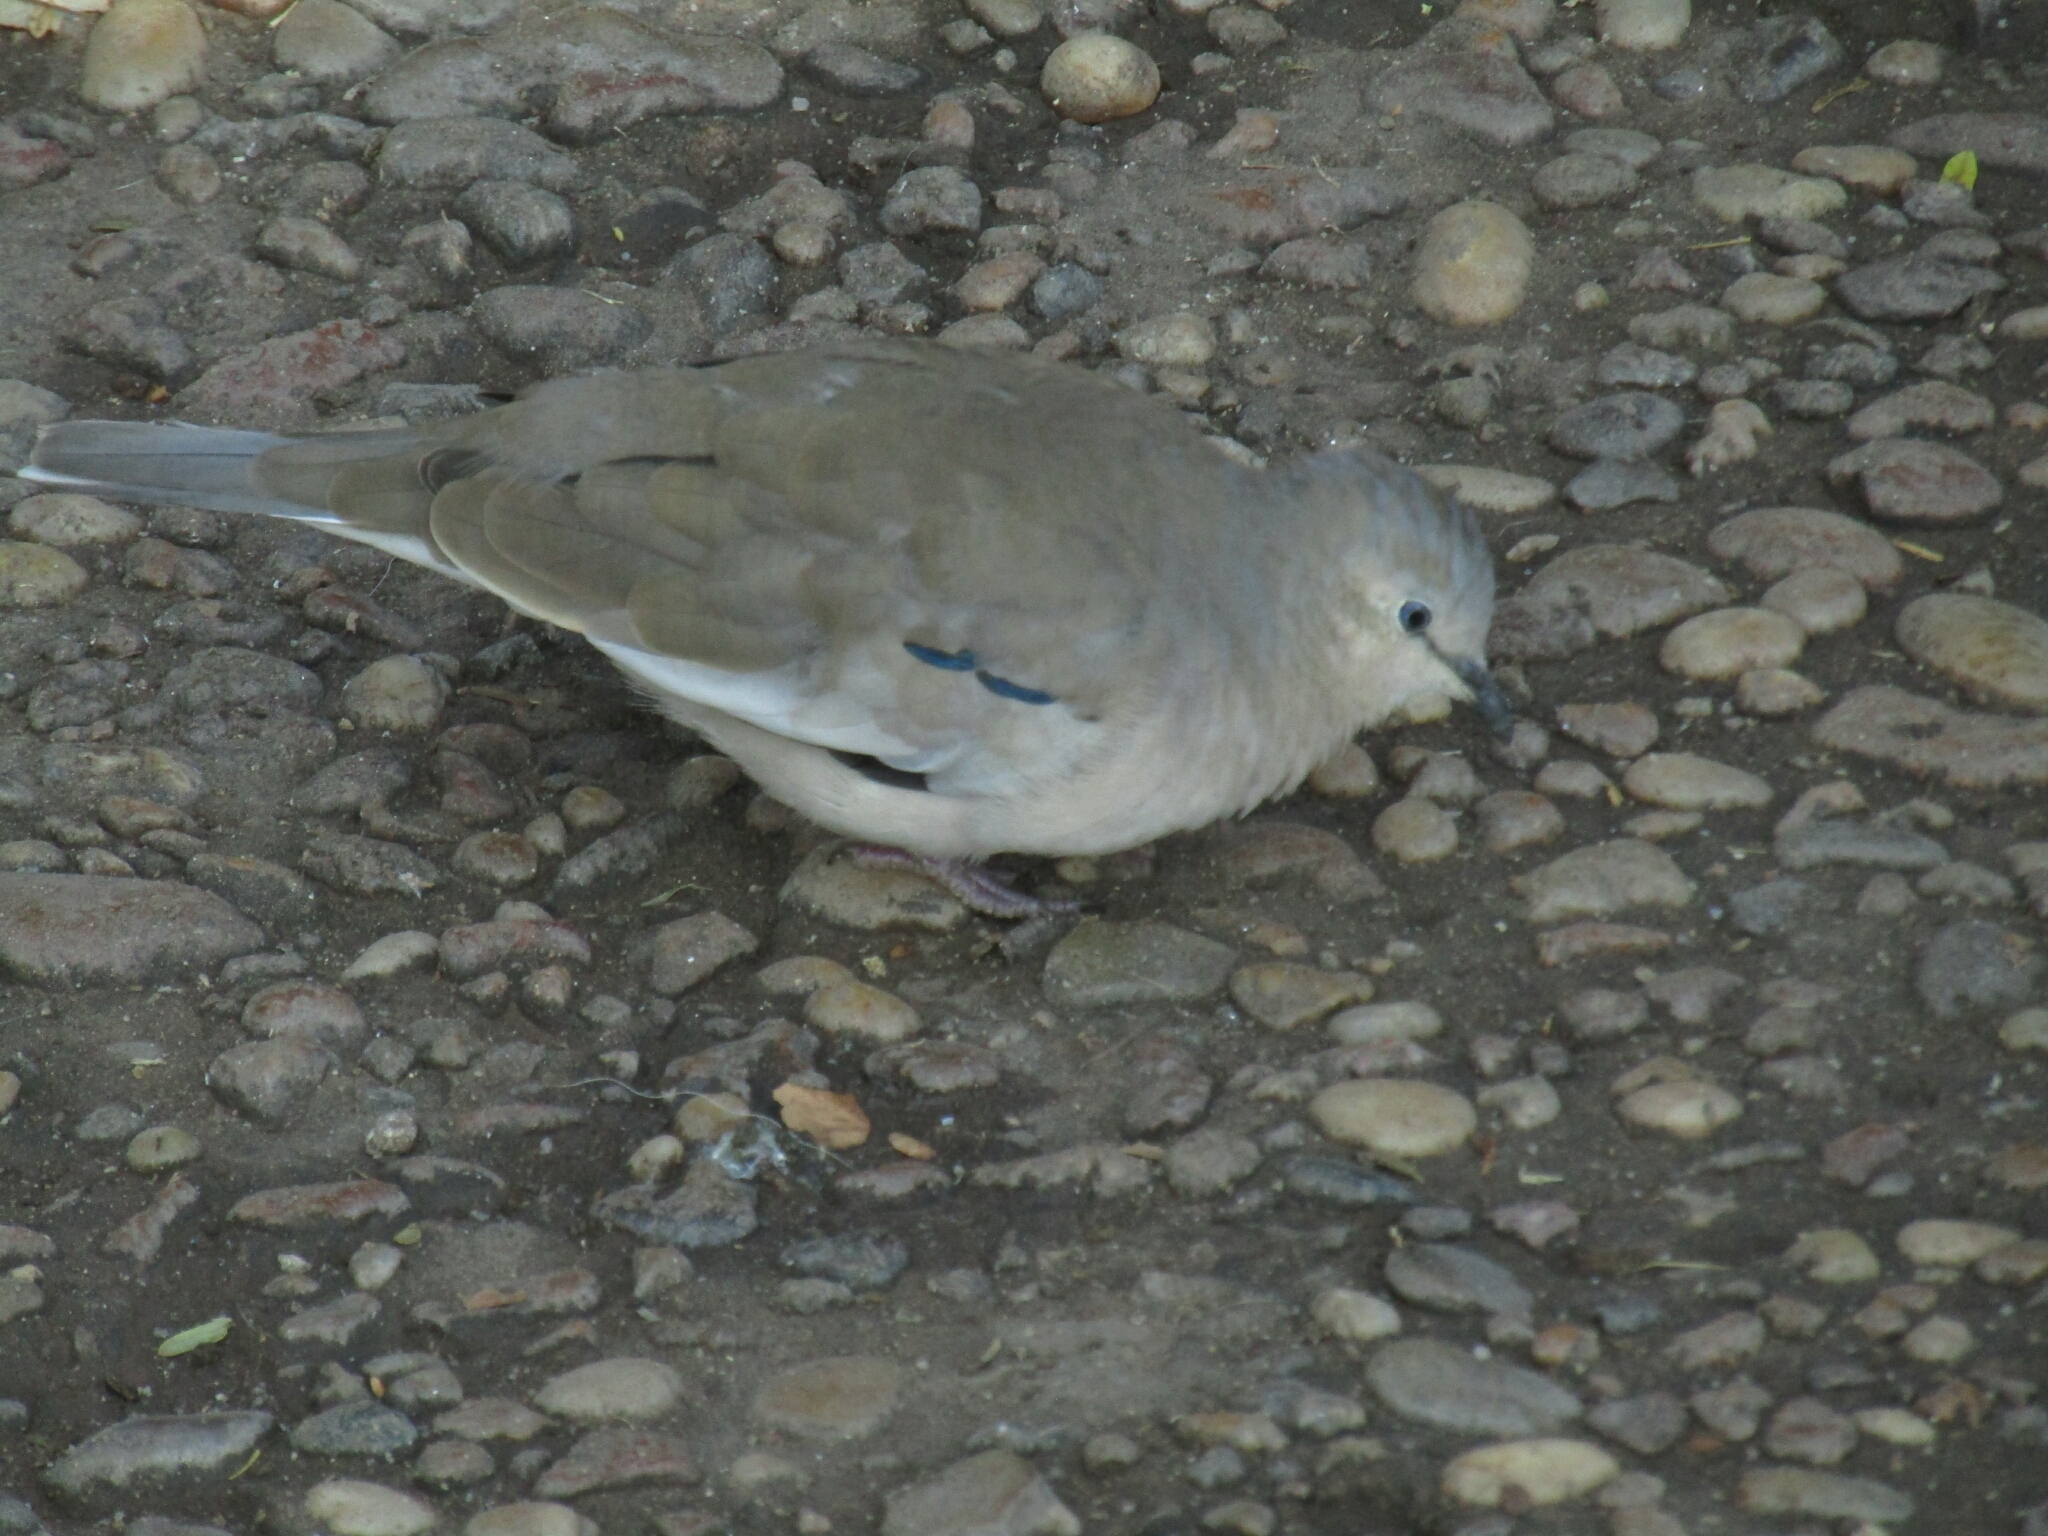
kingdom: Animalia
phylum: Chordata
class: Aves
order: Columbiformes
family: Columbidae
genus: Columbina
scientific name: Columbina picui
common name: Picui ground dove
